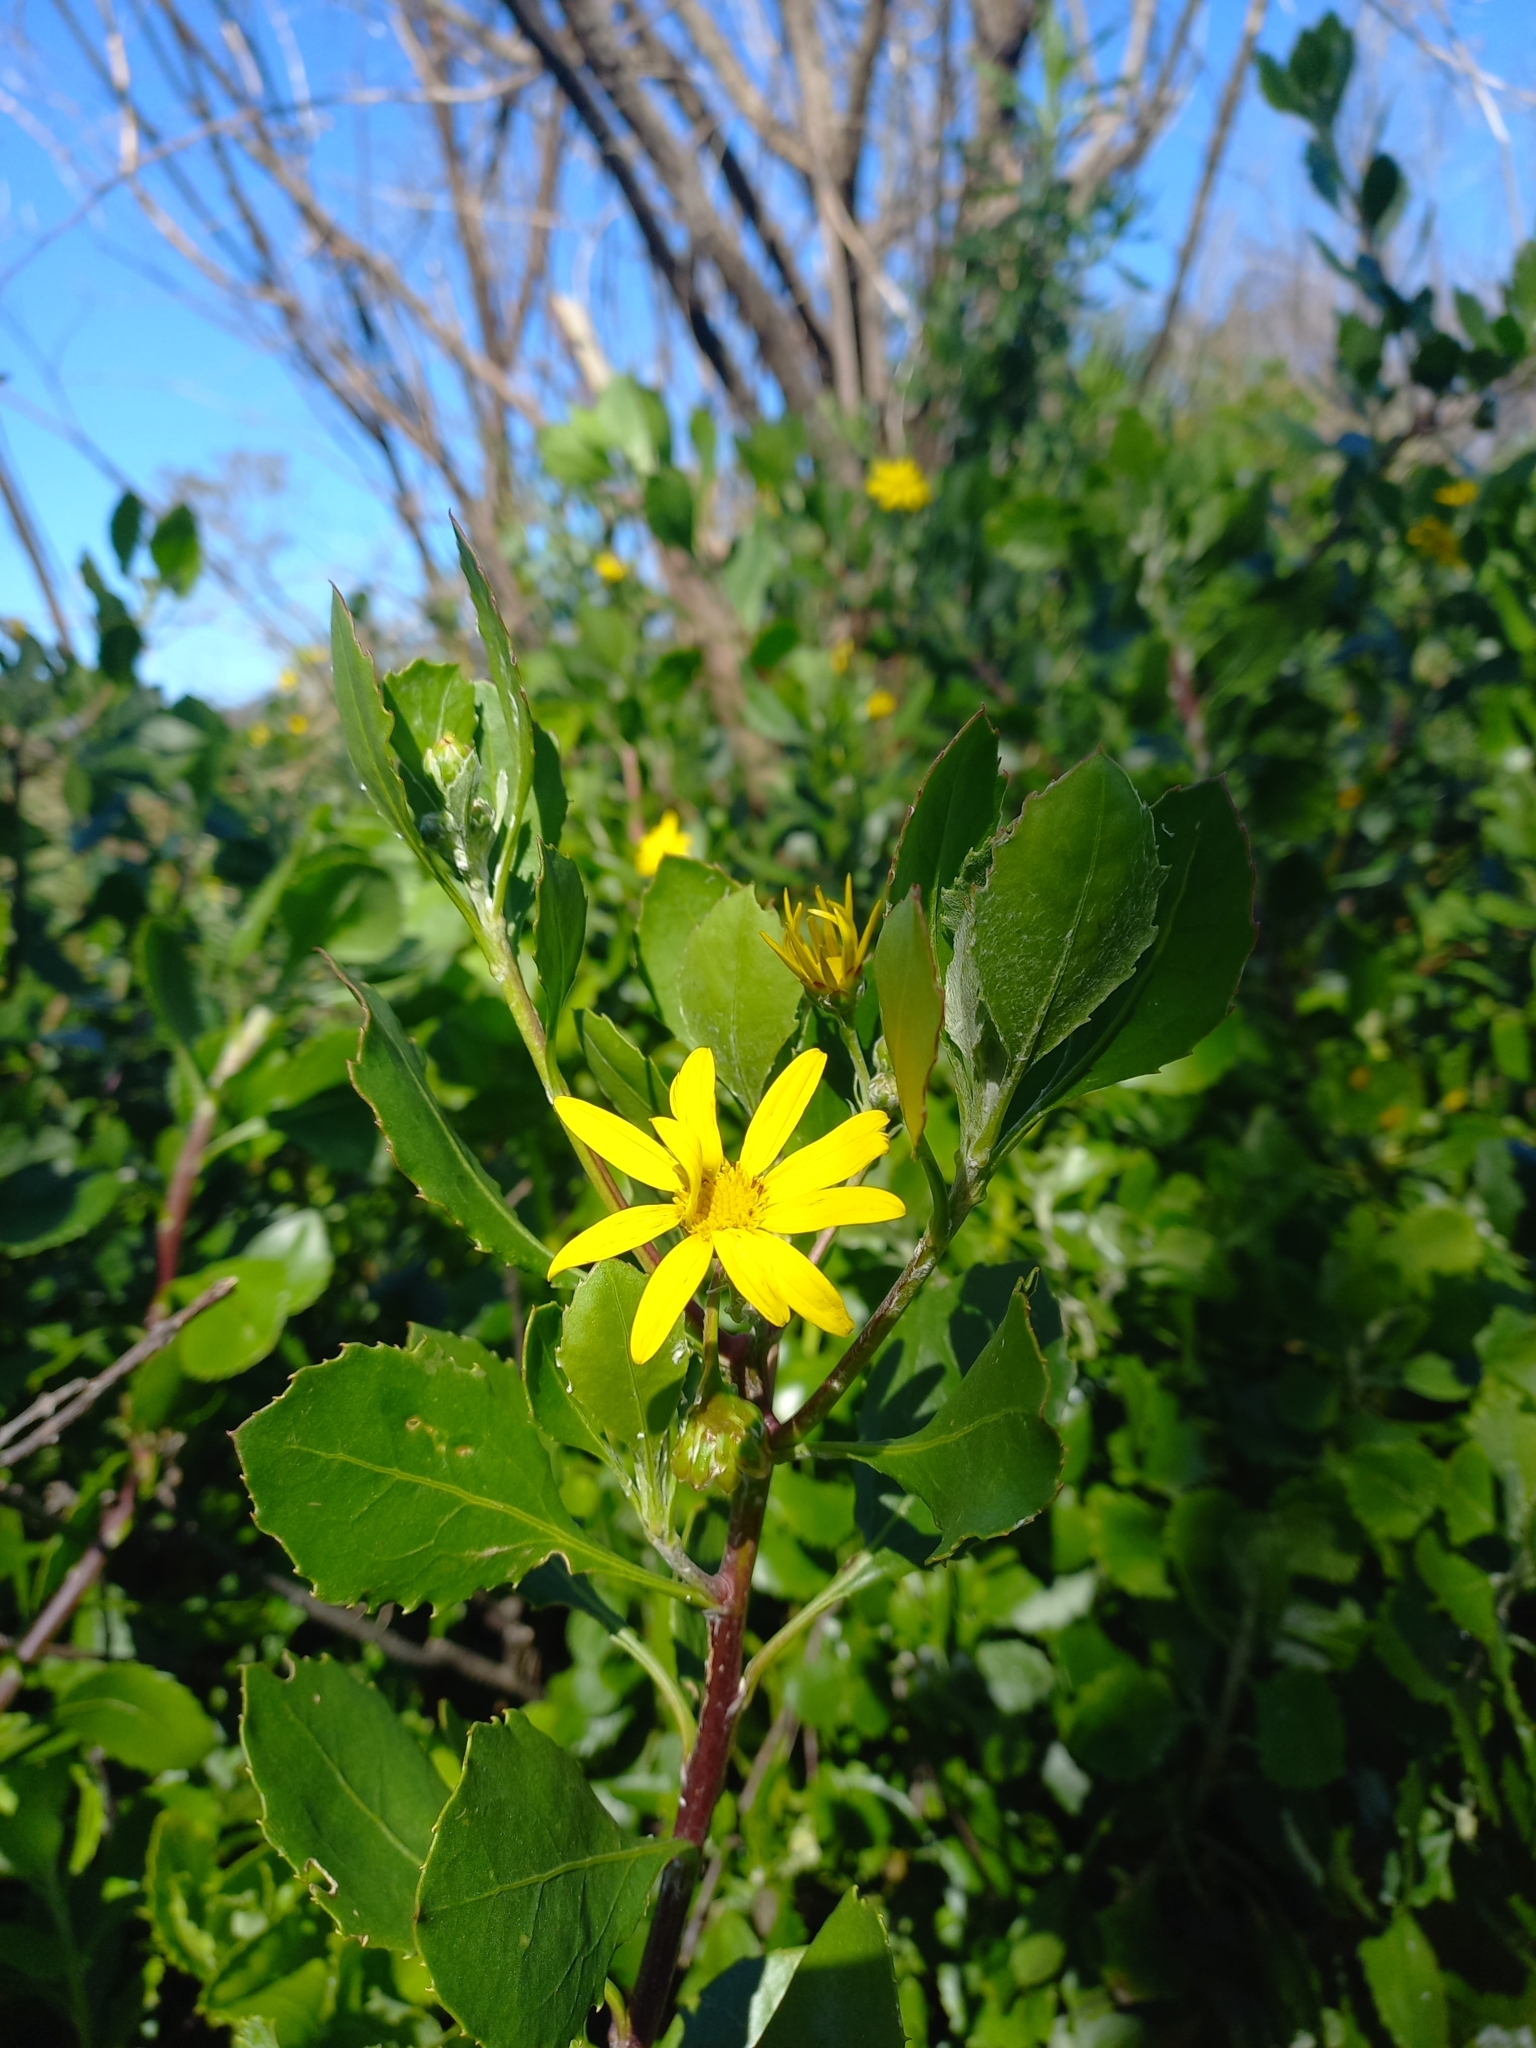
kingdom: Plantae
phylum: Tracheophyta
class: Magnoliopsida
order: Asterales
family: Asteraceae
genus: Osteospermum
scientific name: Osteospermum moniliferum
